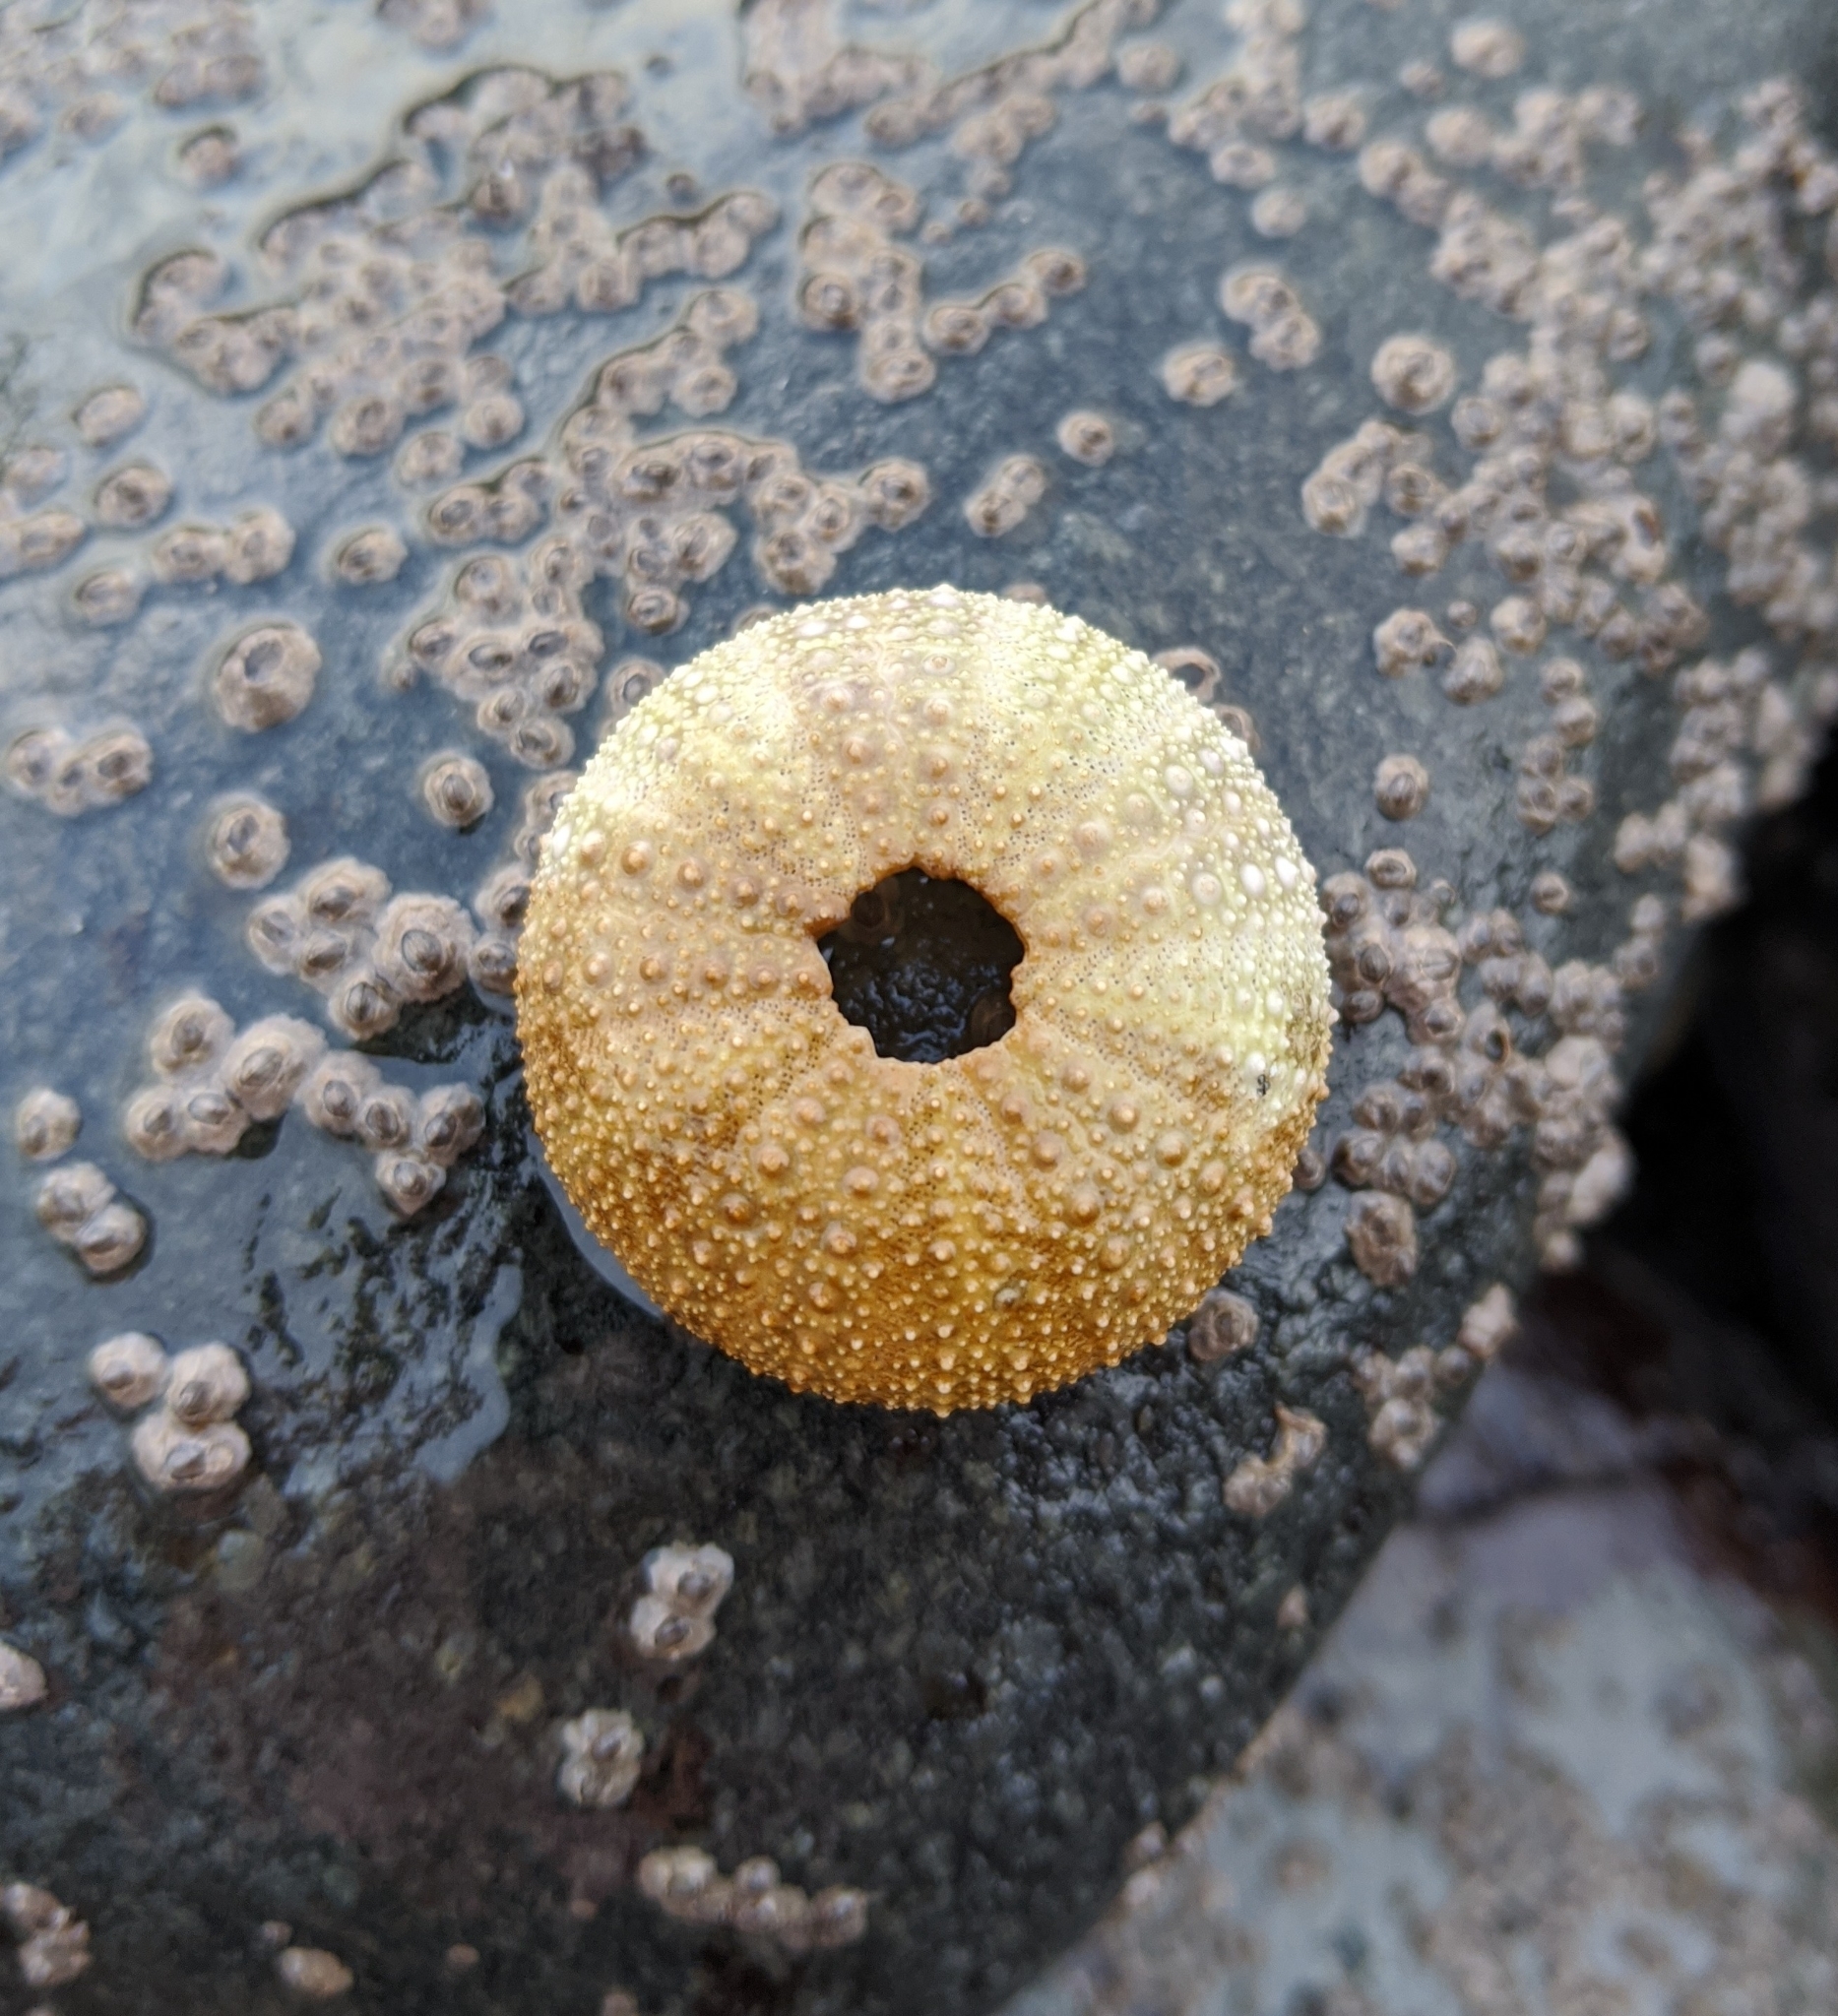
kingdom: Animalia
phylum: Echinodermata
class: Echinoidea
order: Camarodonta
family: Strongylocentrotidae
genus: Strongylocentrotus
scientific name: Strongylocentrotus droebachiensis
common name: Northern sea urchin
